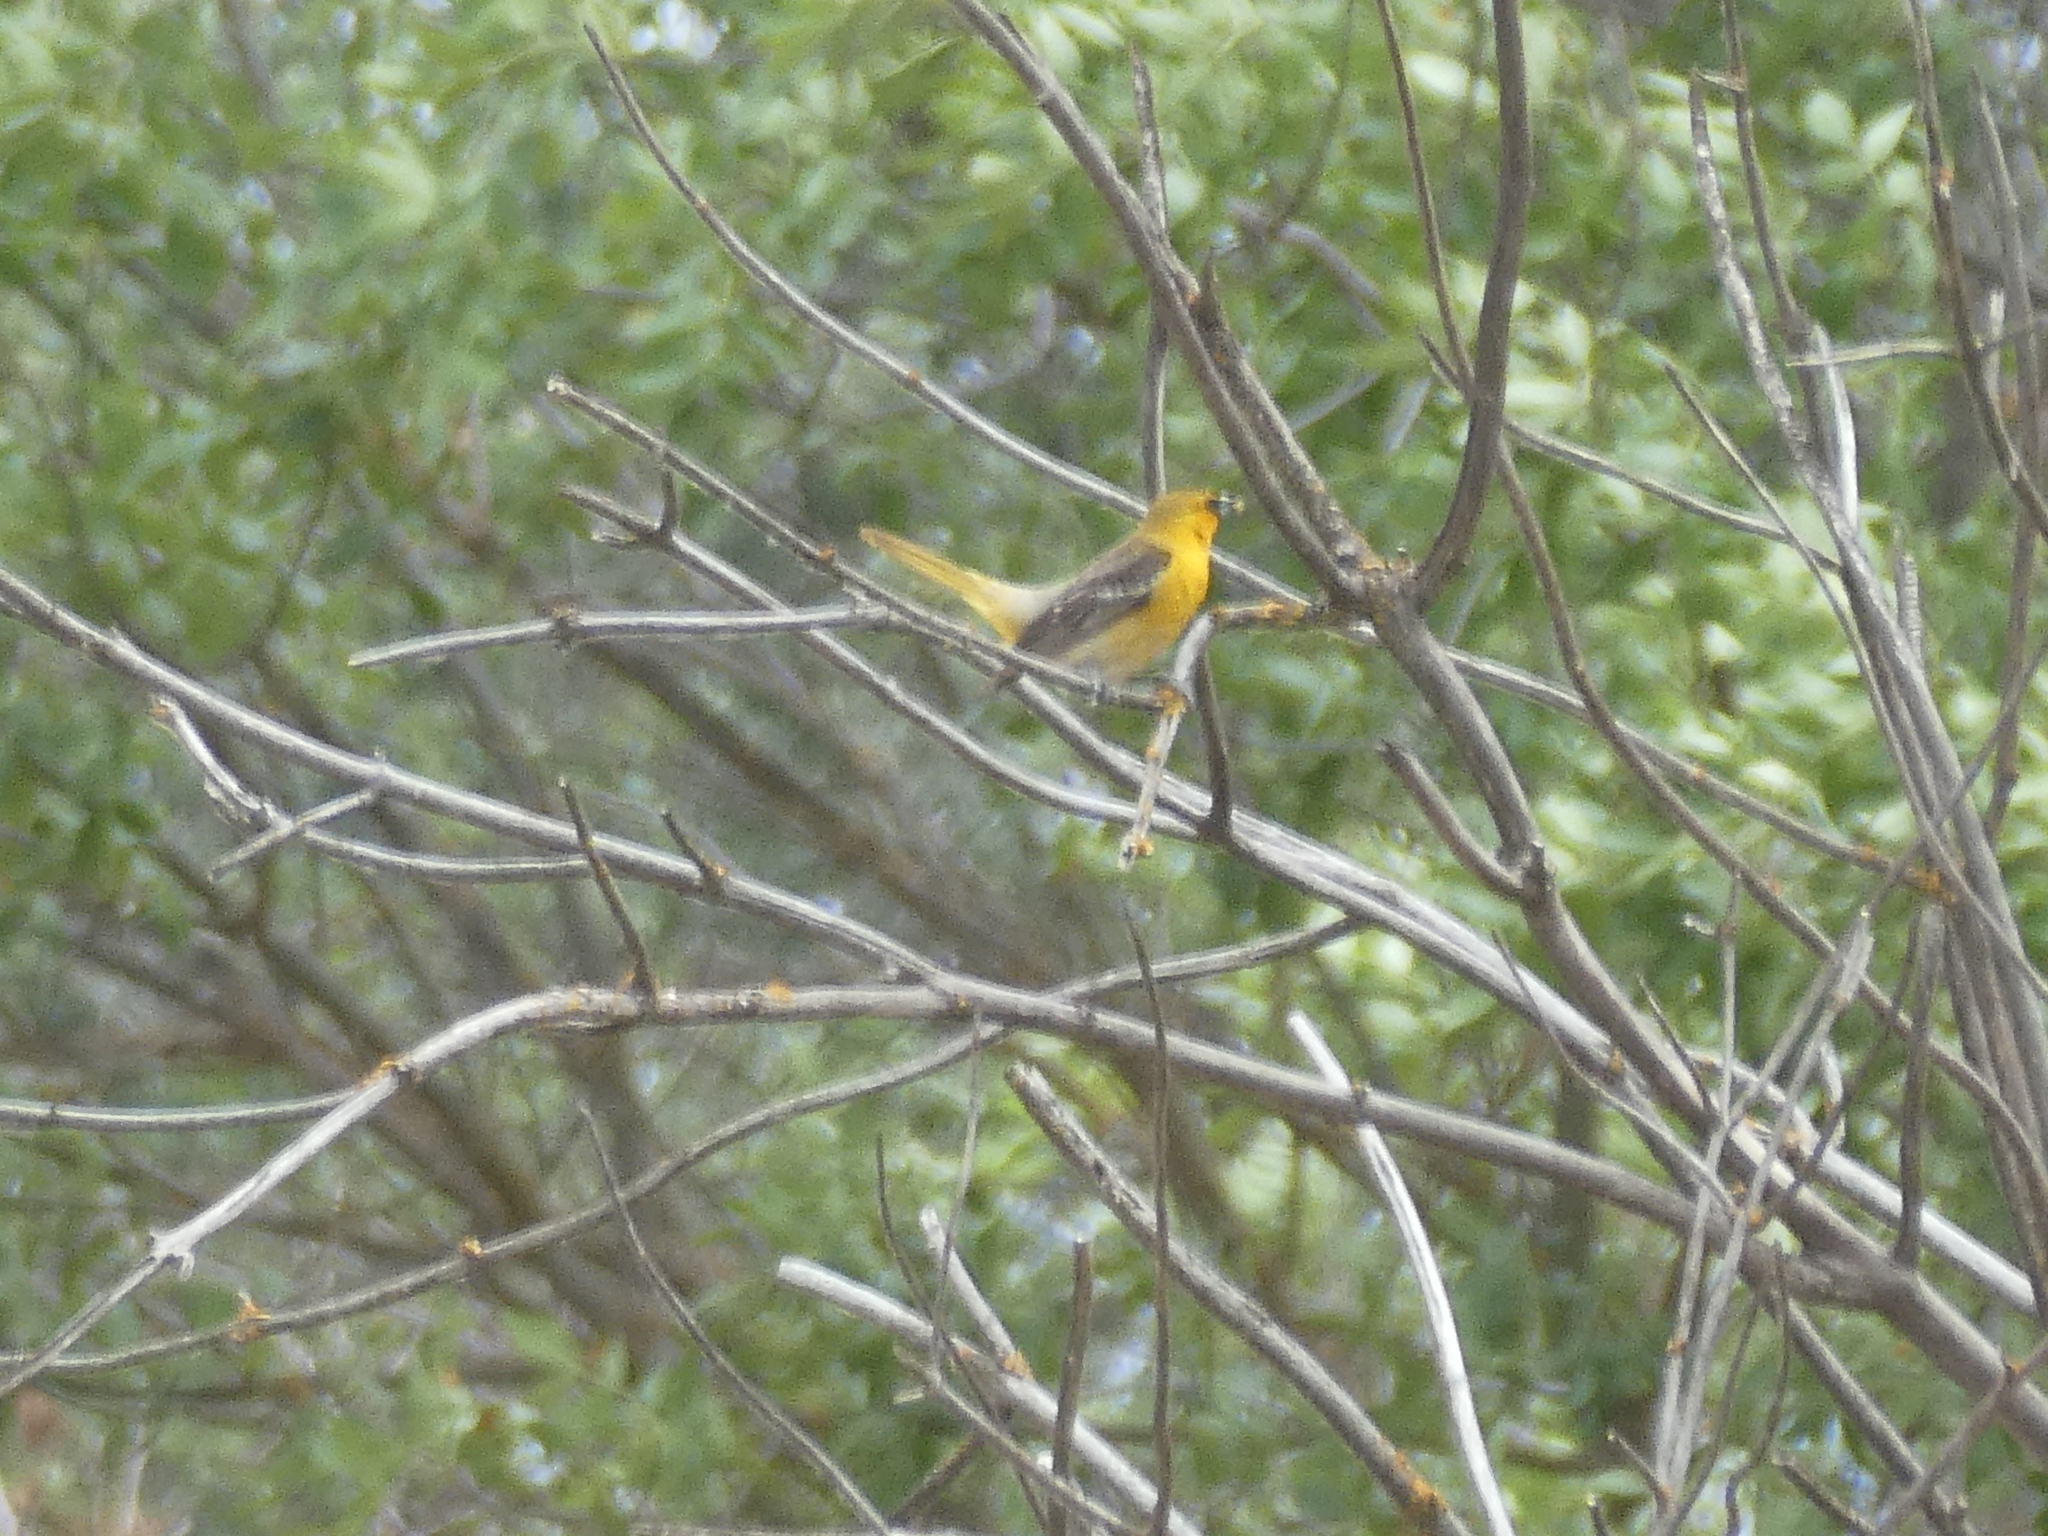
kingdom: Animalia
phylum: Chordata
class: Aves
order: Passeriformes
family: Icteridae
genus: Icterus
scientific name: Icterus bullockii
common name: Bullock's oriole
